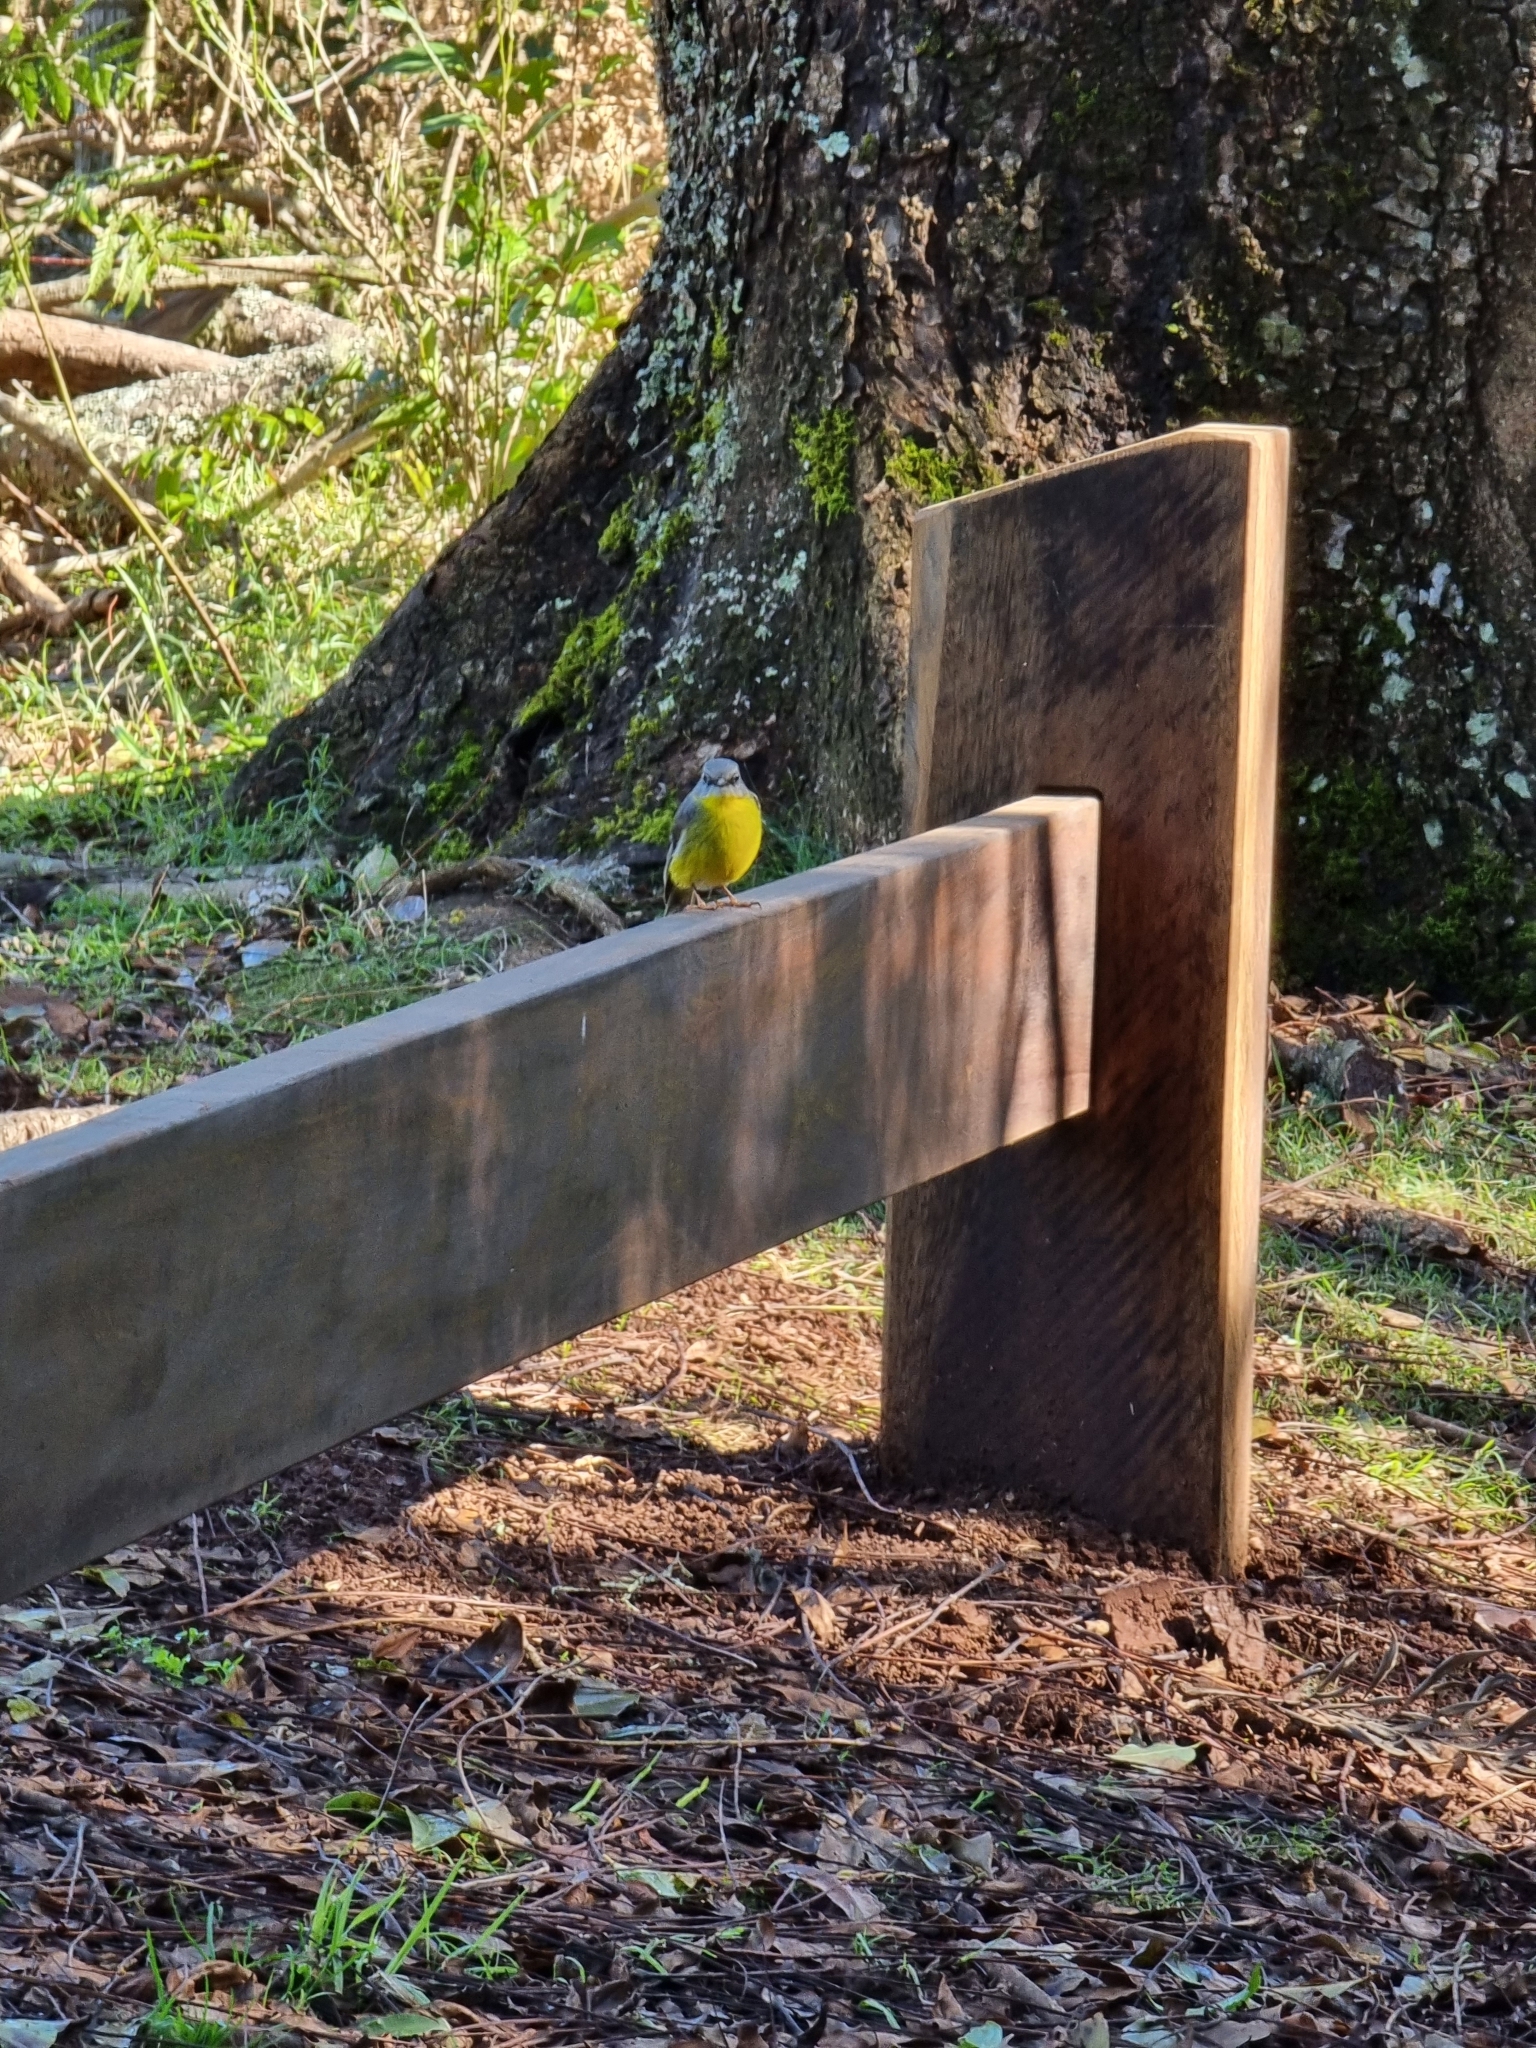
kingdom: Animalia
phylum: Chordata
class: Aves
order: Passeriformes
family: Petroicidae
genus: Eopsaltria
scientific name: Eopsaltria australis
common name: Eastern yellow robin
